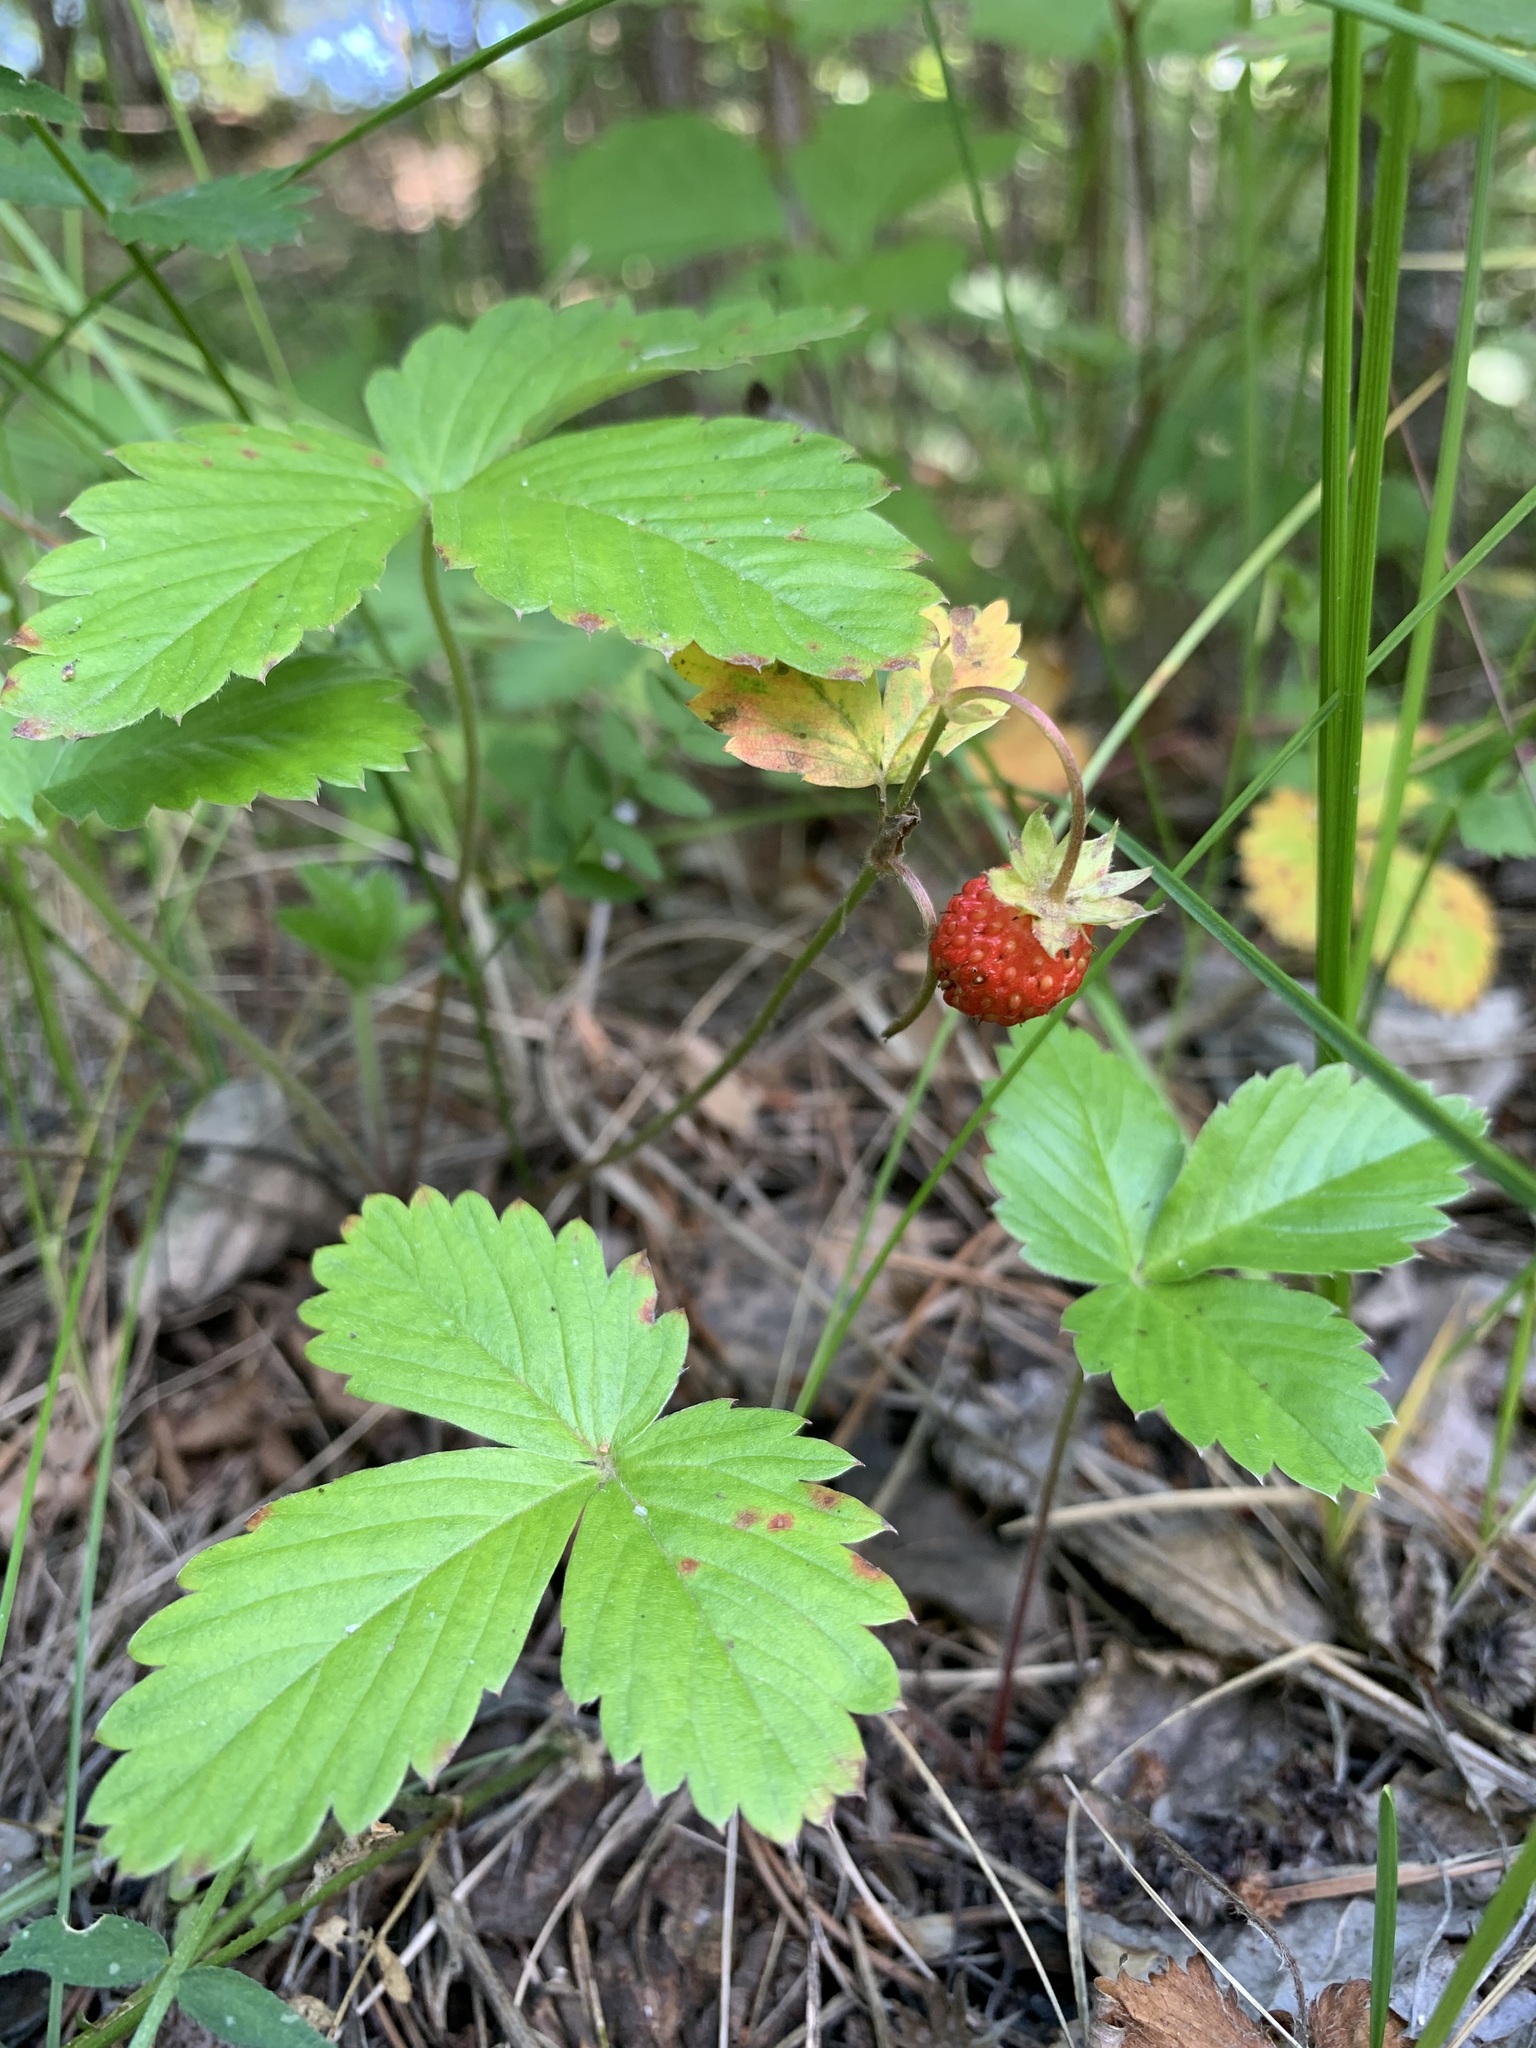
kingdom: Plantae
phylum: Tracheophyta
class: Magnoliopsida
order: Rosales
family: Rosaceae
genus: Fragaria
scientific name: Fragaria vesca
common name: Wild strawberry
